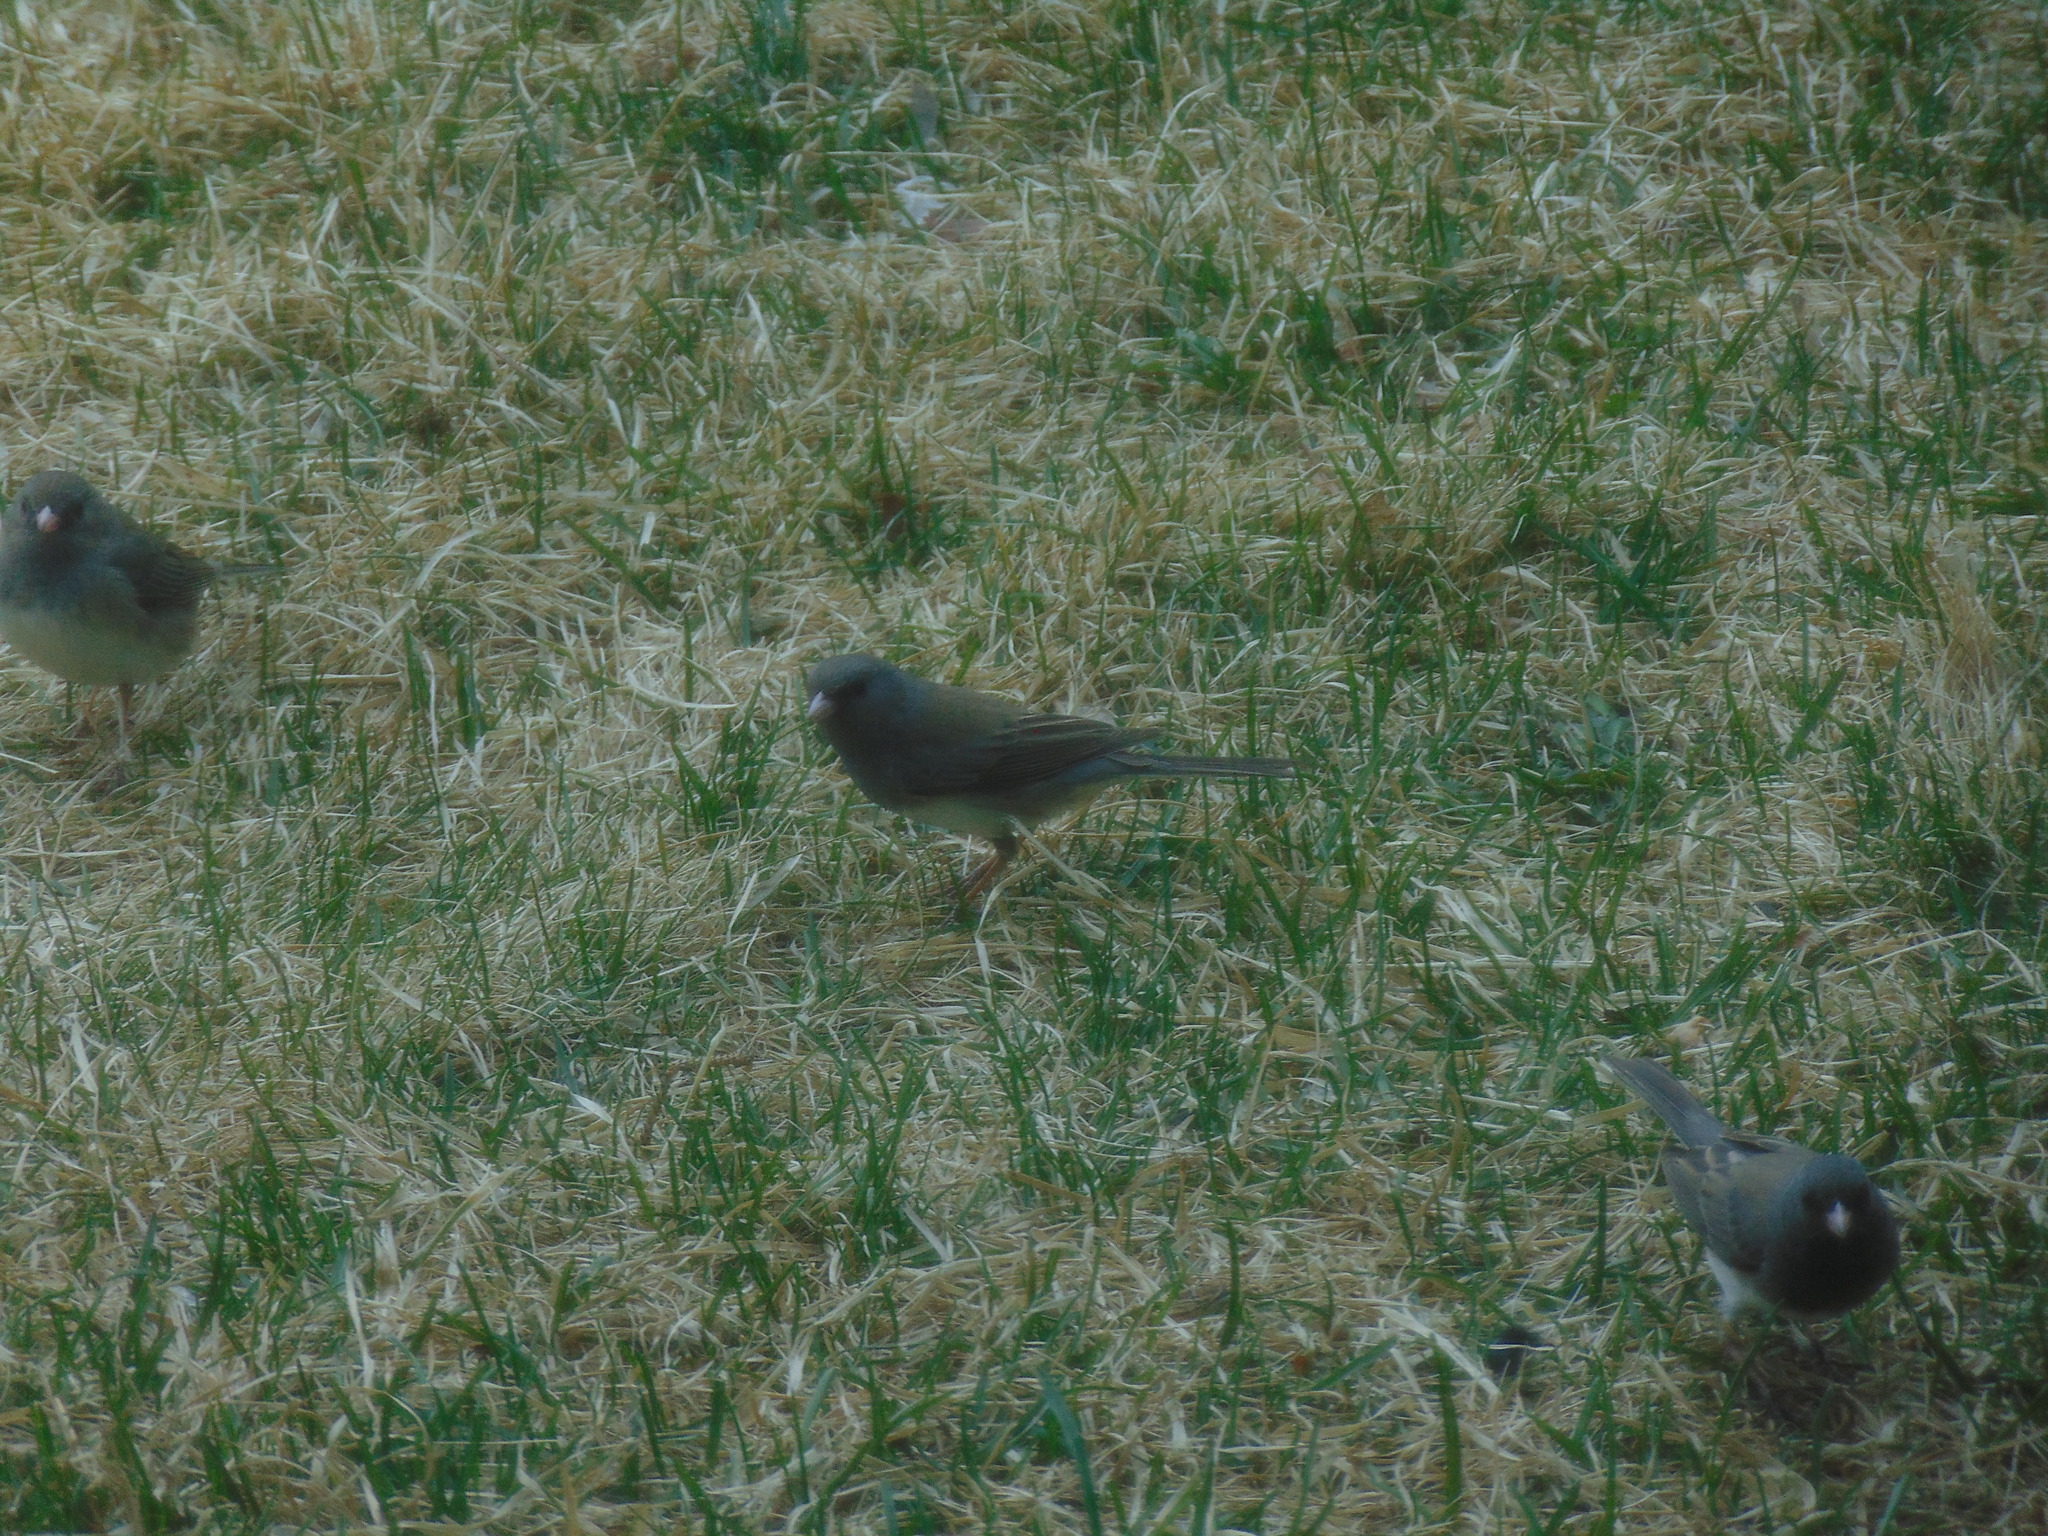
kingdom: Animalia
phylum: Chordata
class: Aves
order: Passeriformes
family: Passerellidae
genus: Junco
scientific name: Junco hyemalis
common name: Dark-eyed junco
